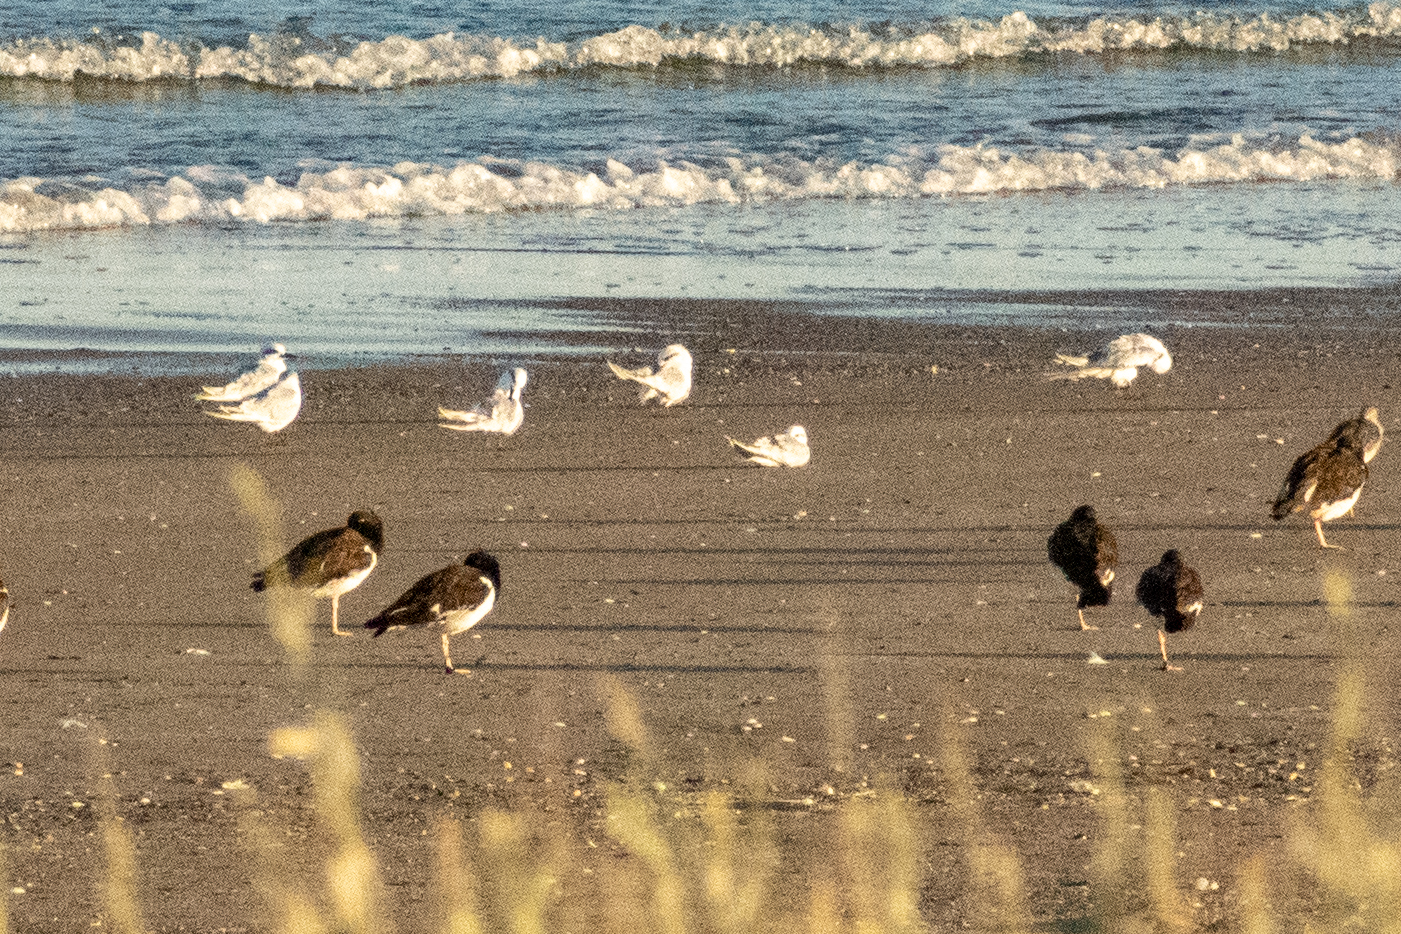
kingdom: Animalia
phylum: Chordata
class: Aves
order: Charadriiformes
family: Laridae
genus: Sterna
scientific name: Sterna trudeaui
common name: Snowy-crowned tern
